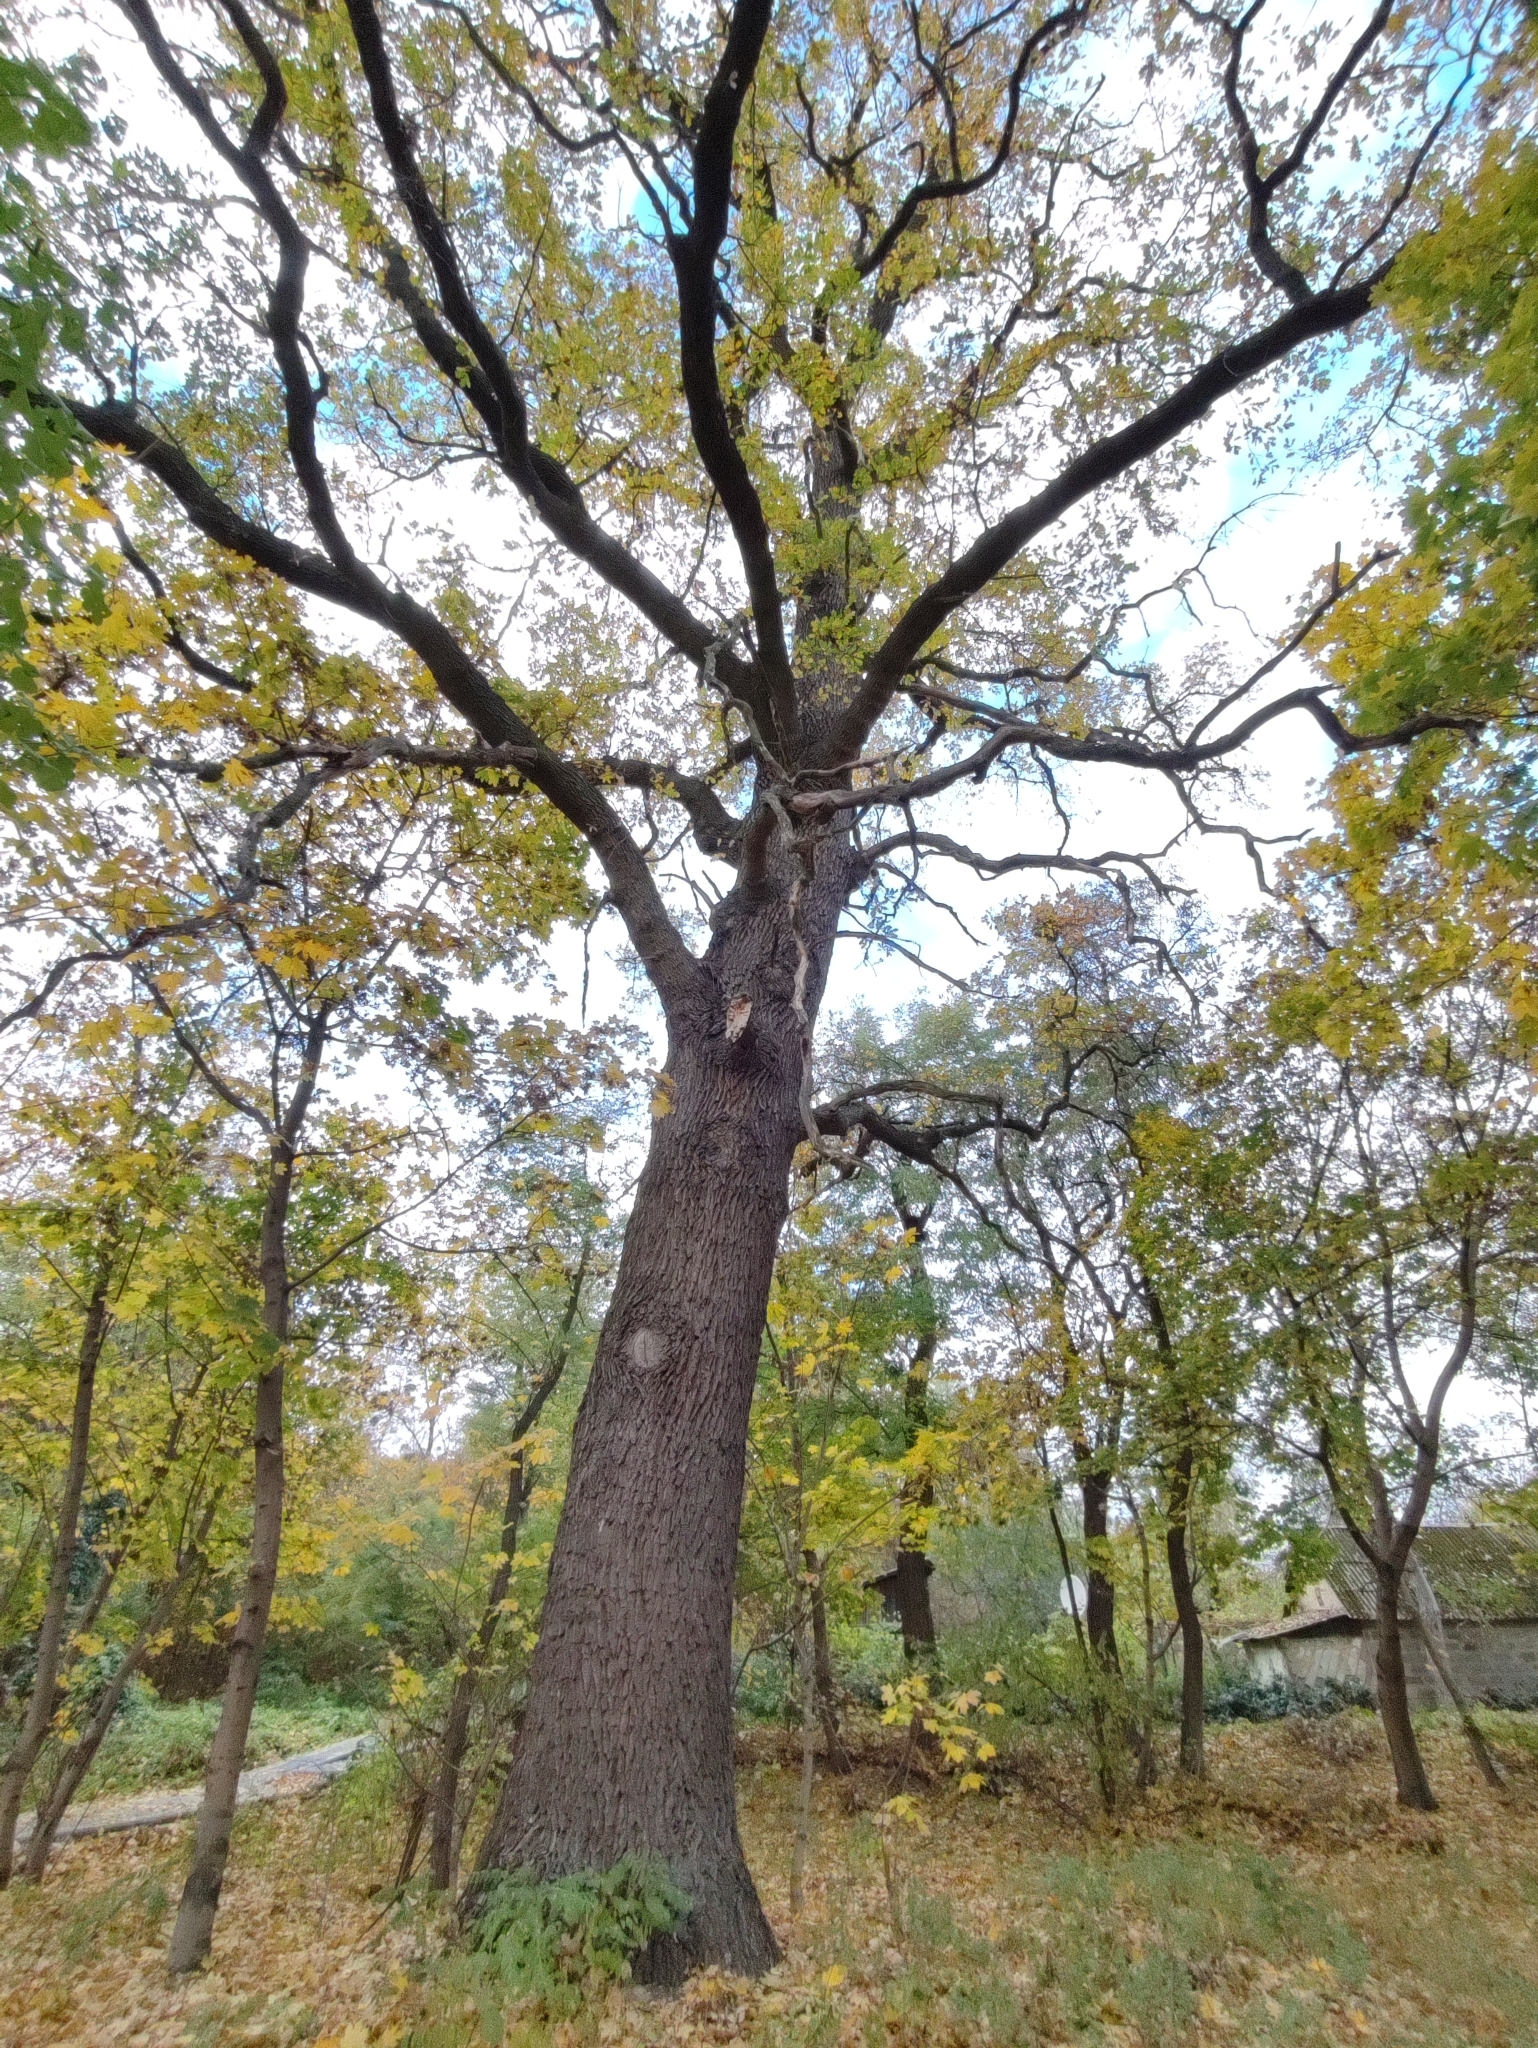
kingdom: Plantae
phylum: Tracheophyta
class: Magnoliopsida
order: Fagales
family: Fagaceae
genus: Quercus
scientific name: Quercus robur
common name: Pedunculate oak
